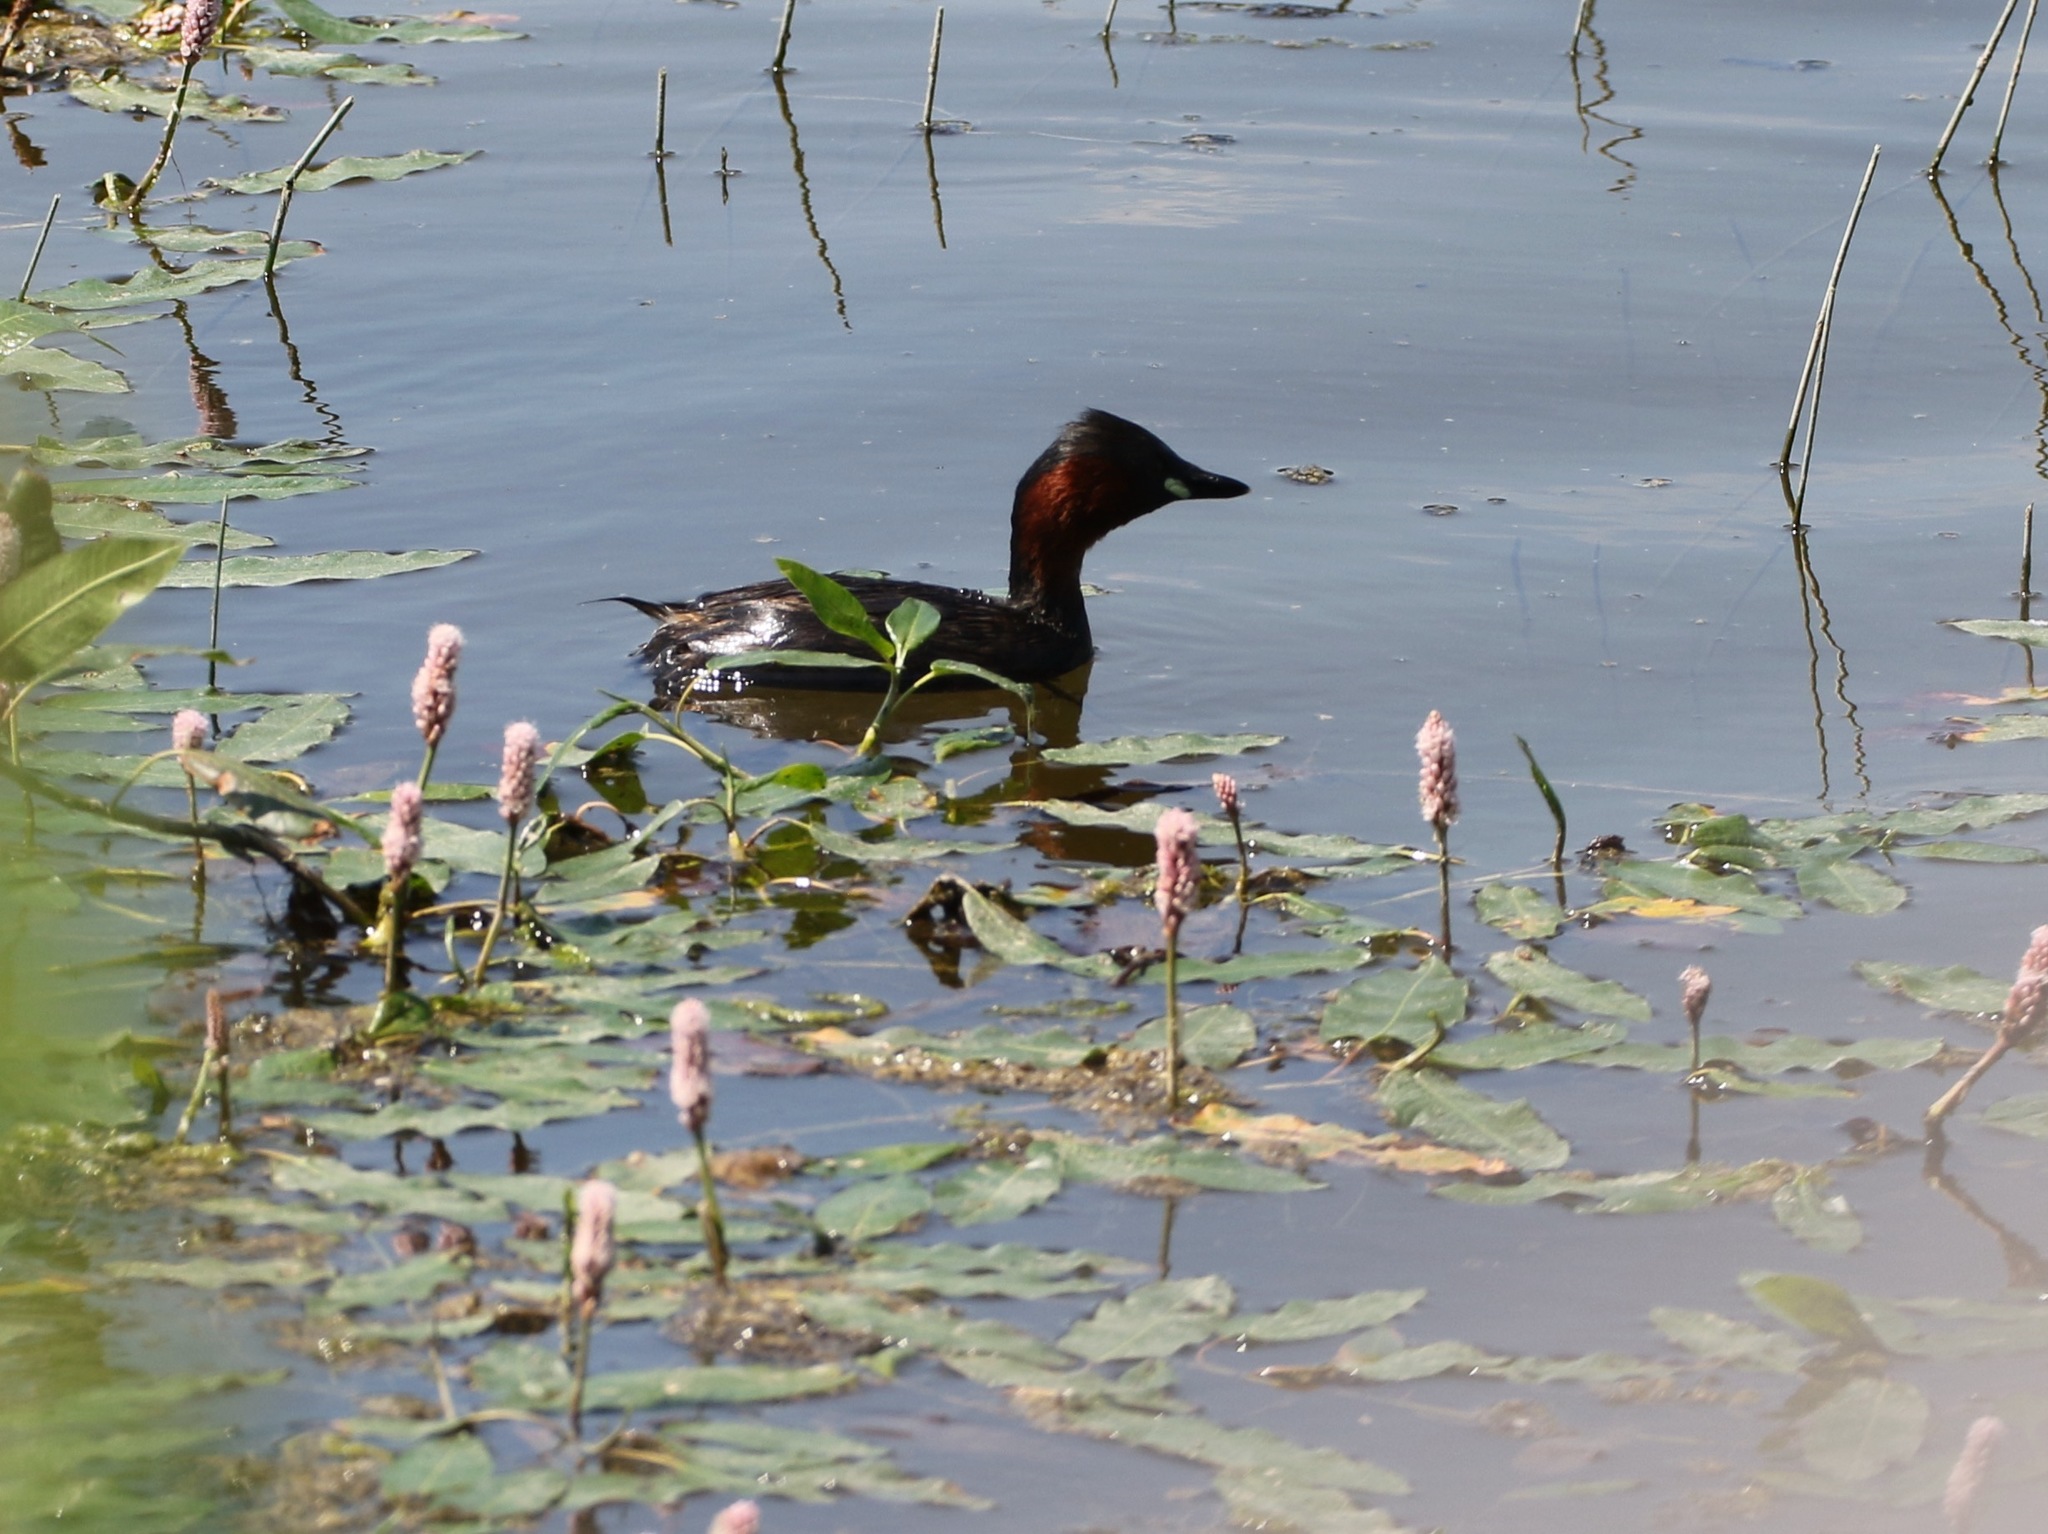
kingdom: Animalia
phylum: Chordata
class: Aves
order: Podicipediformes
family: Podicipedidae
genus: Tachybaptus
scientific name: Tachybaptus ruficollis
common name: Little grebe
